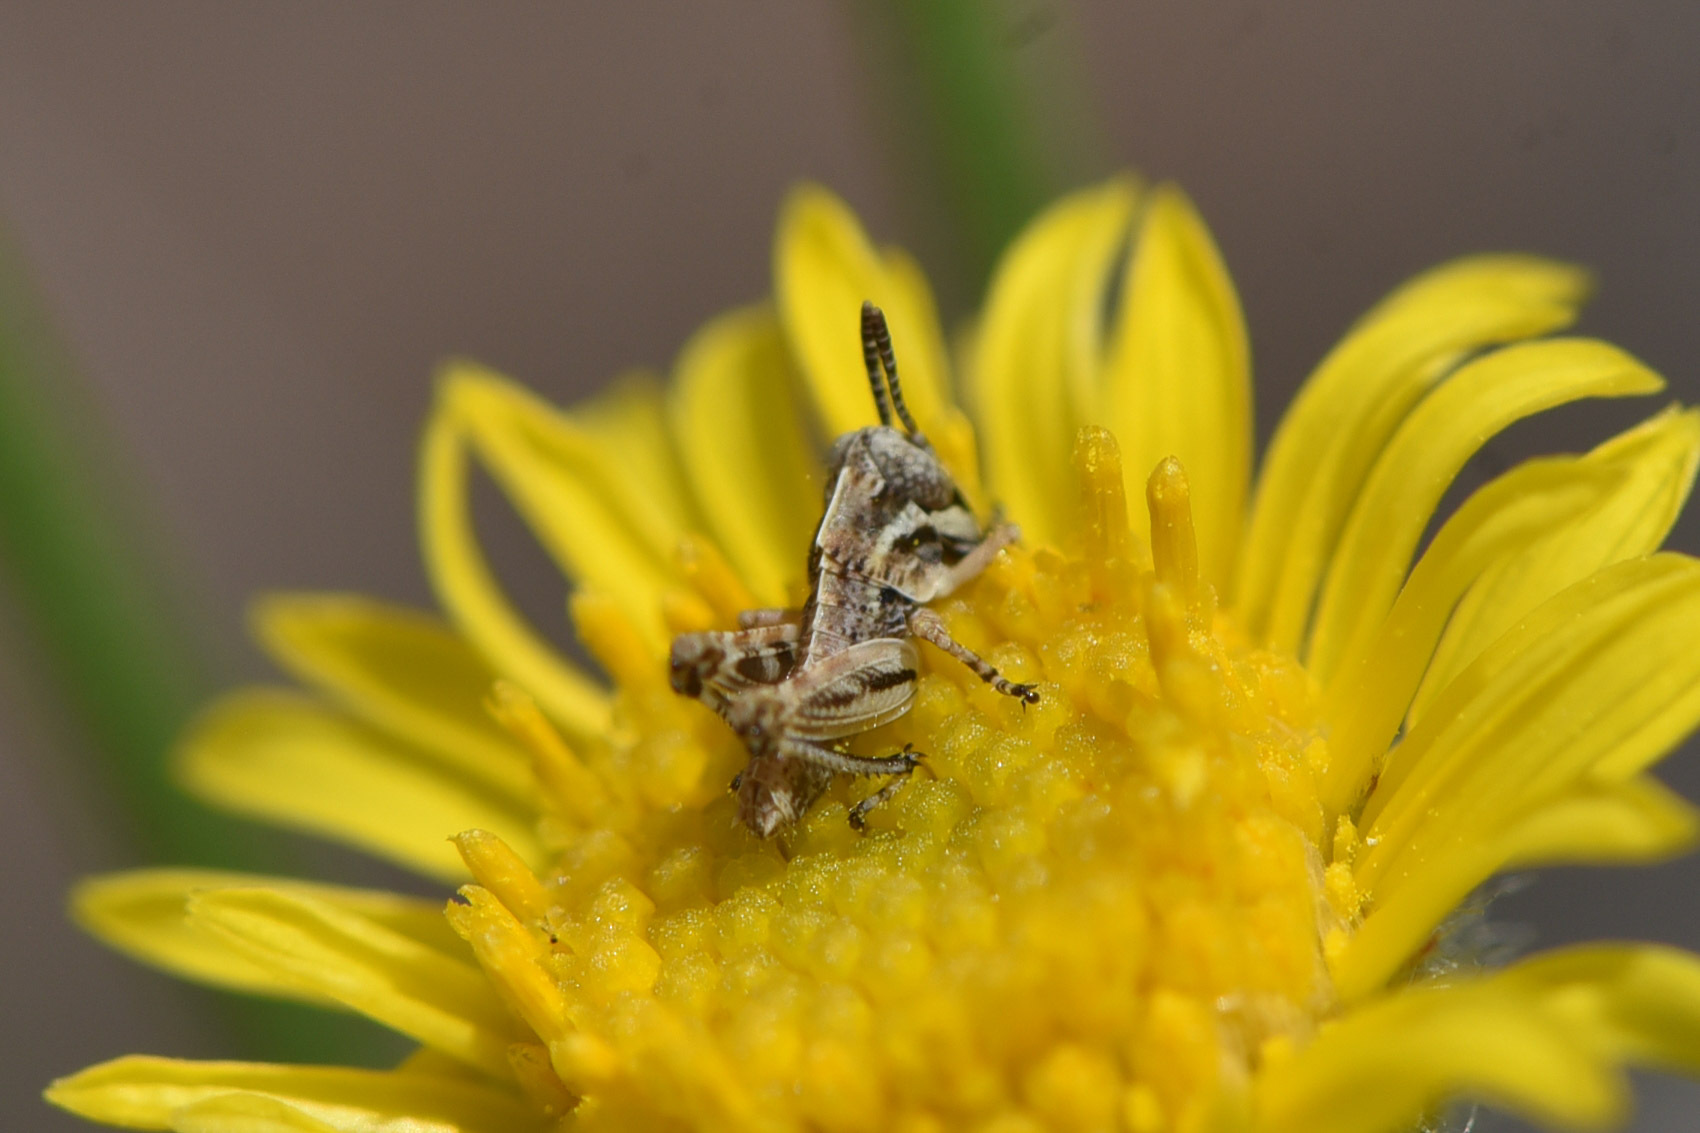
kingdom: Animalia
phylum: Arthropoda
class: Insecta
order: Orthoptera
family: Acrididae
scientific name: Acrididae
